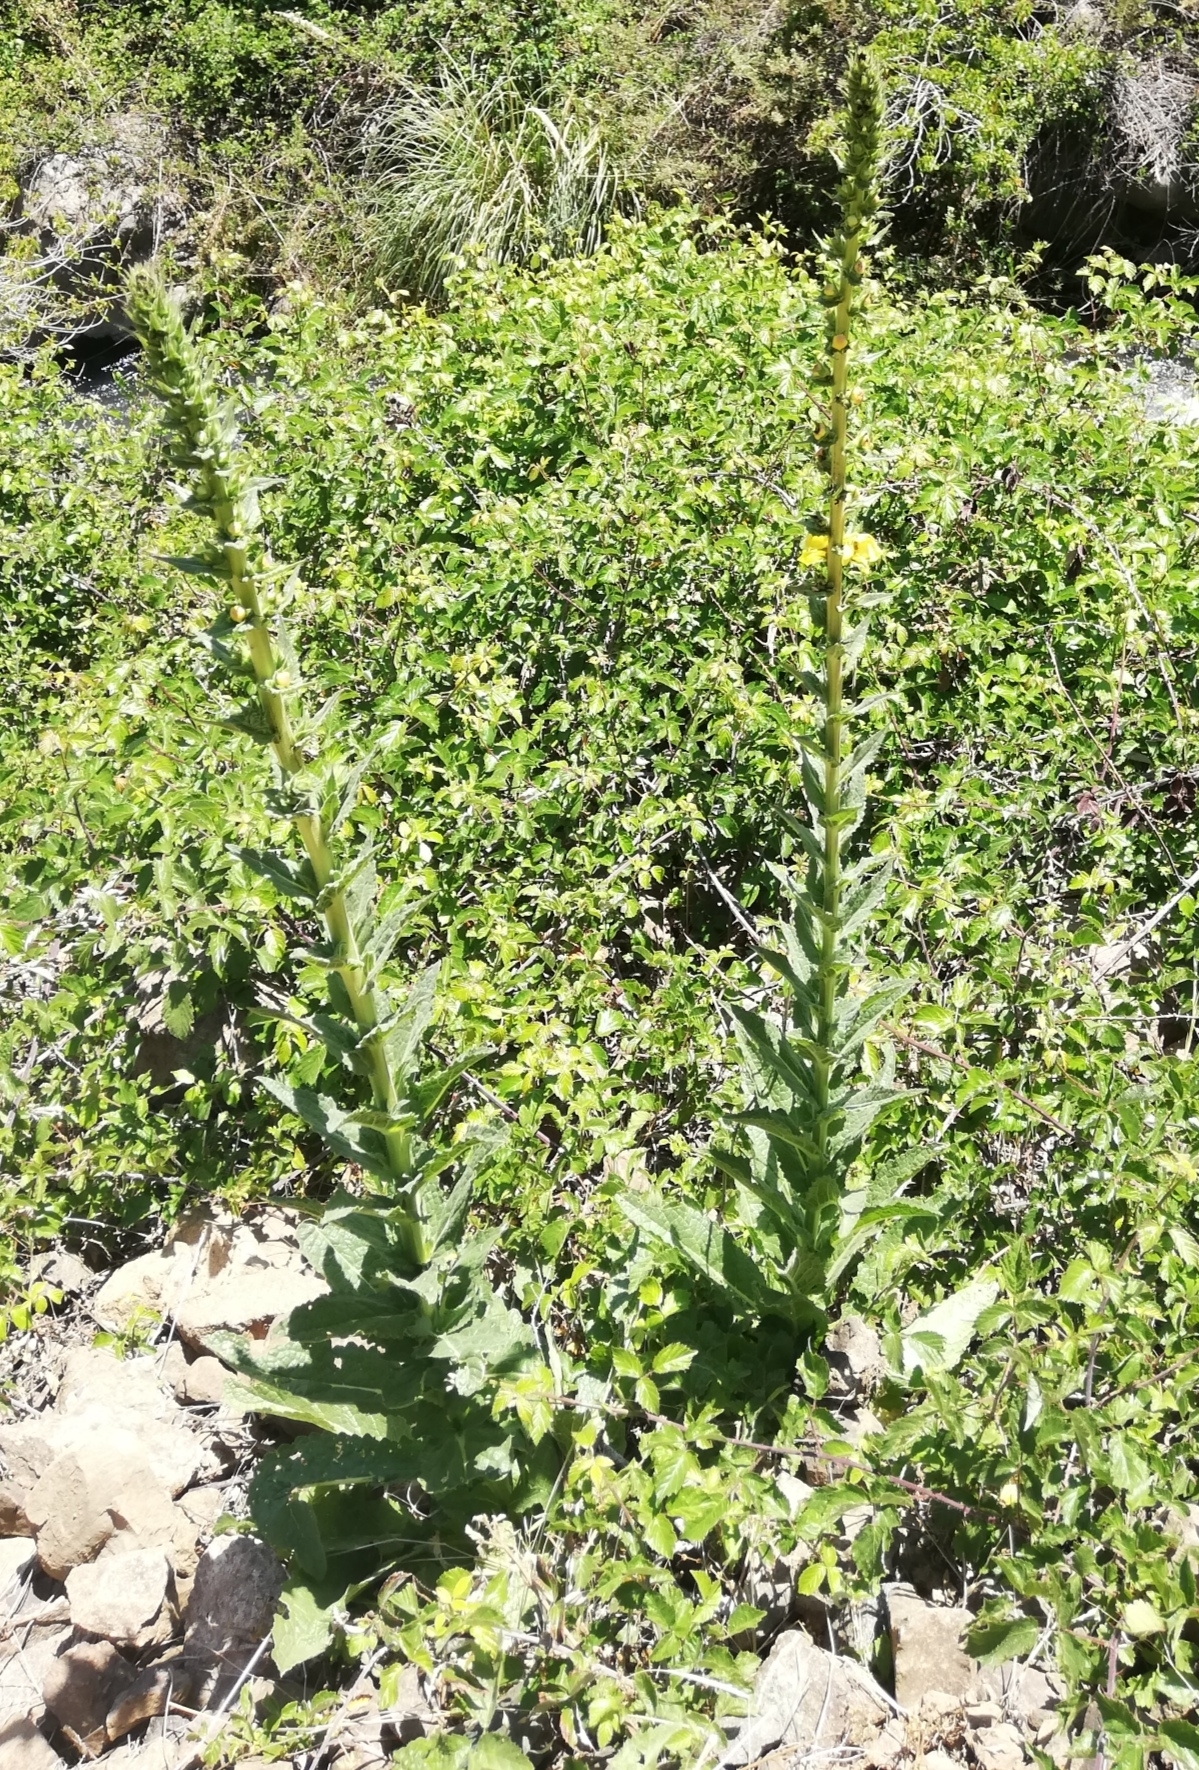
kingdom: Plantae
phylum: Tracheophyta
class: Magnoliopsida
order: Lamiales
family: Scrophulariaceae
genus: Verbascum
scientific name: Verbascum virgatum
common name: Twiggy mullein
